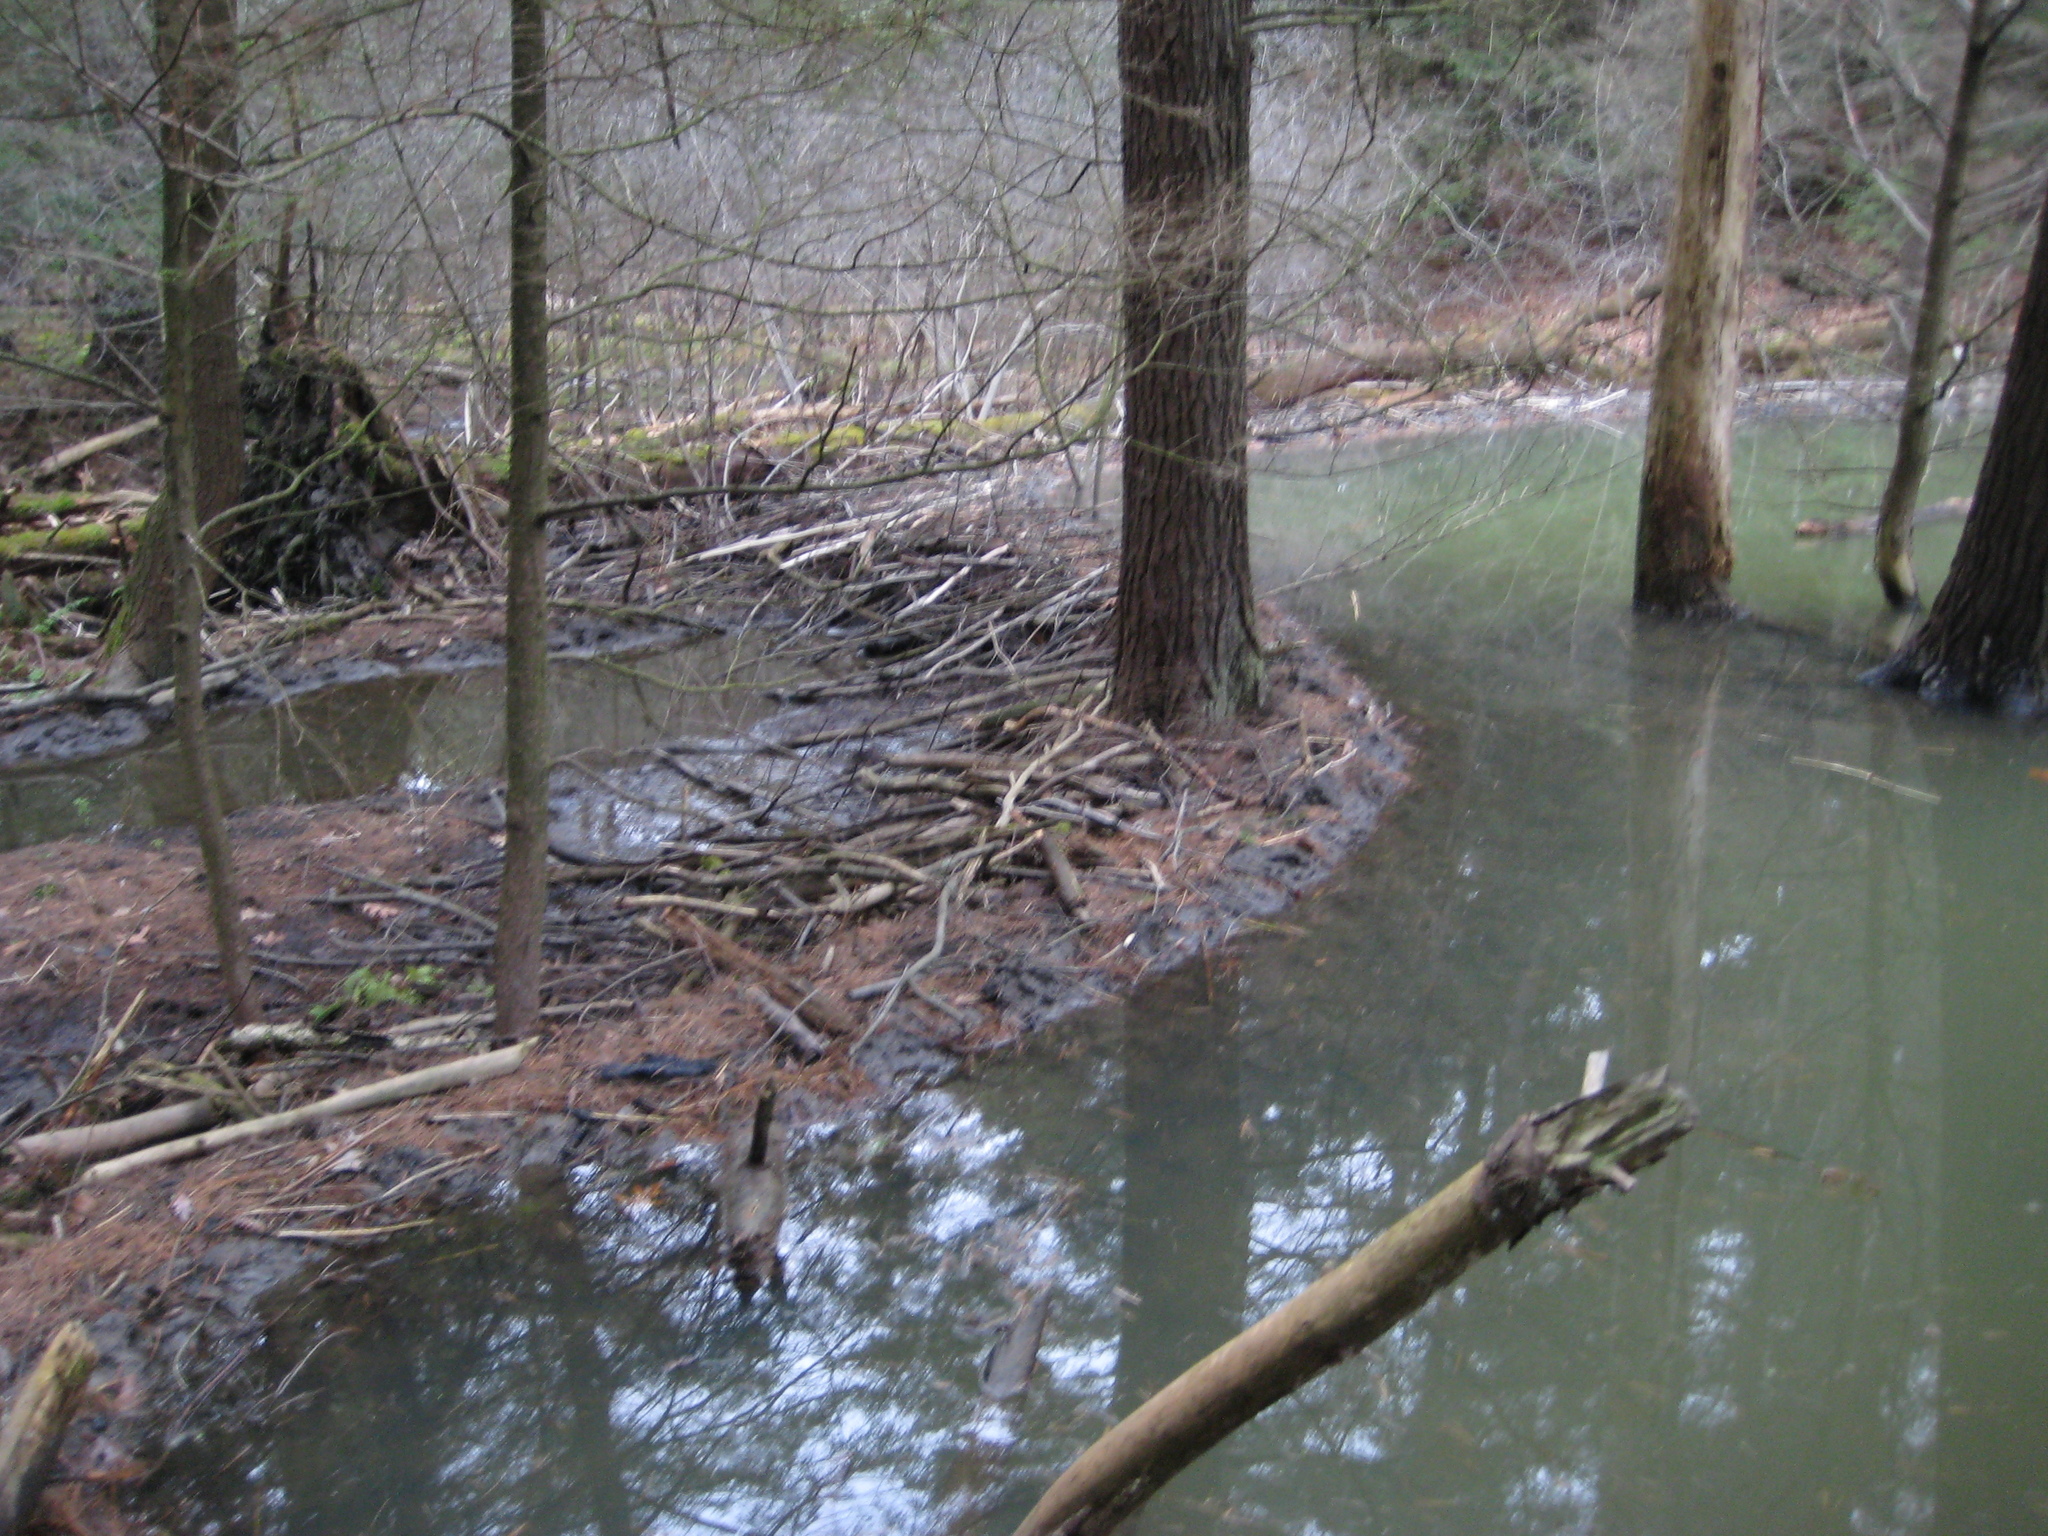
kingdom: Animalia
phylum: Chordata
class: Mammalia
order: Rodentia
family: Castoridae
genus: Castor
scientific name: Castor canadensis
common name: American beaver
